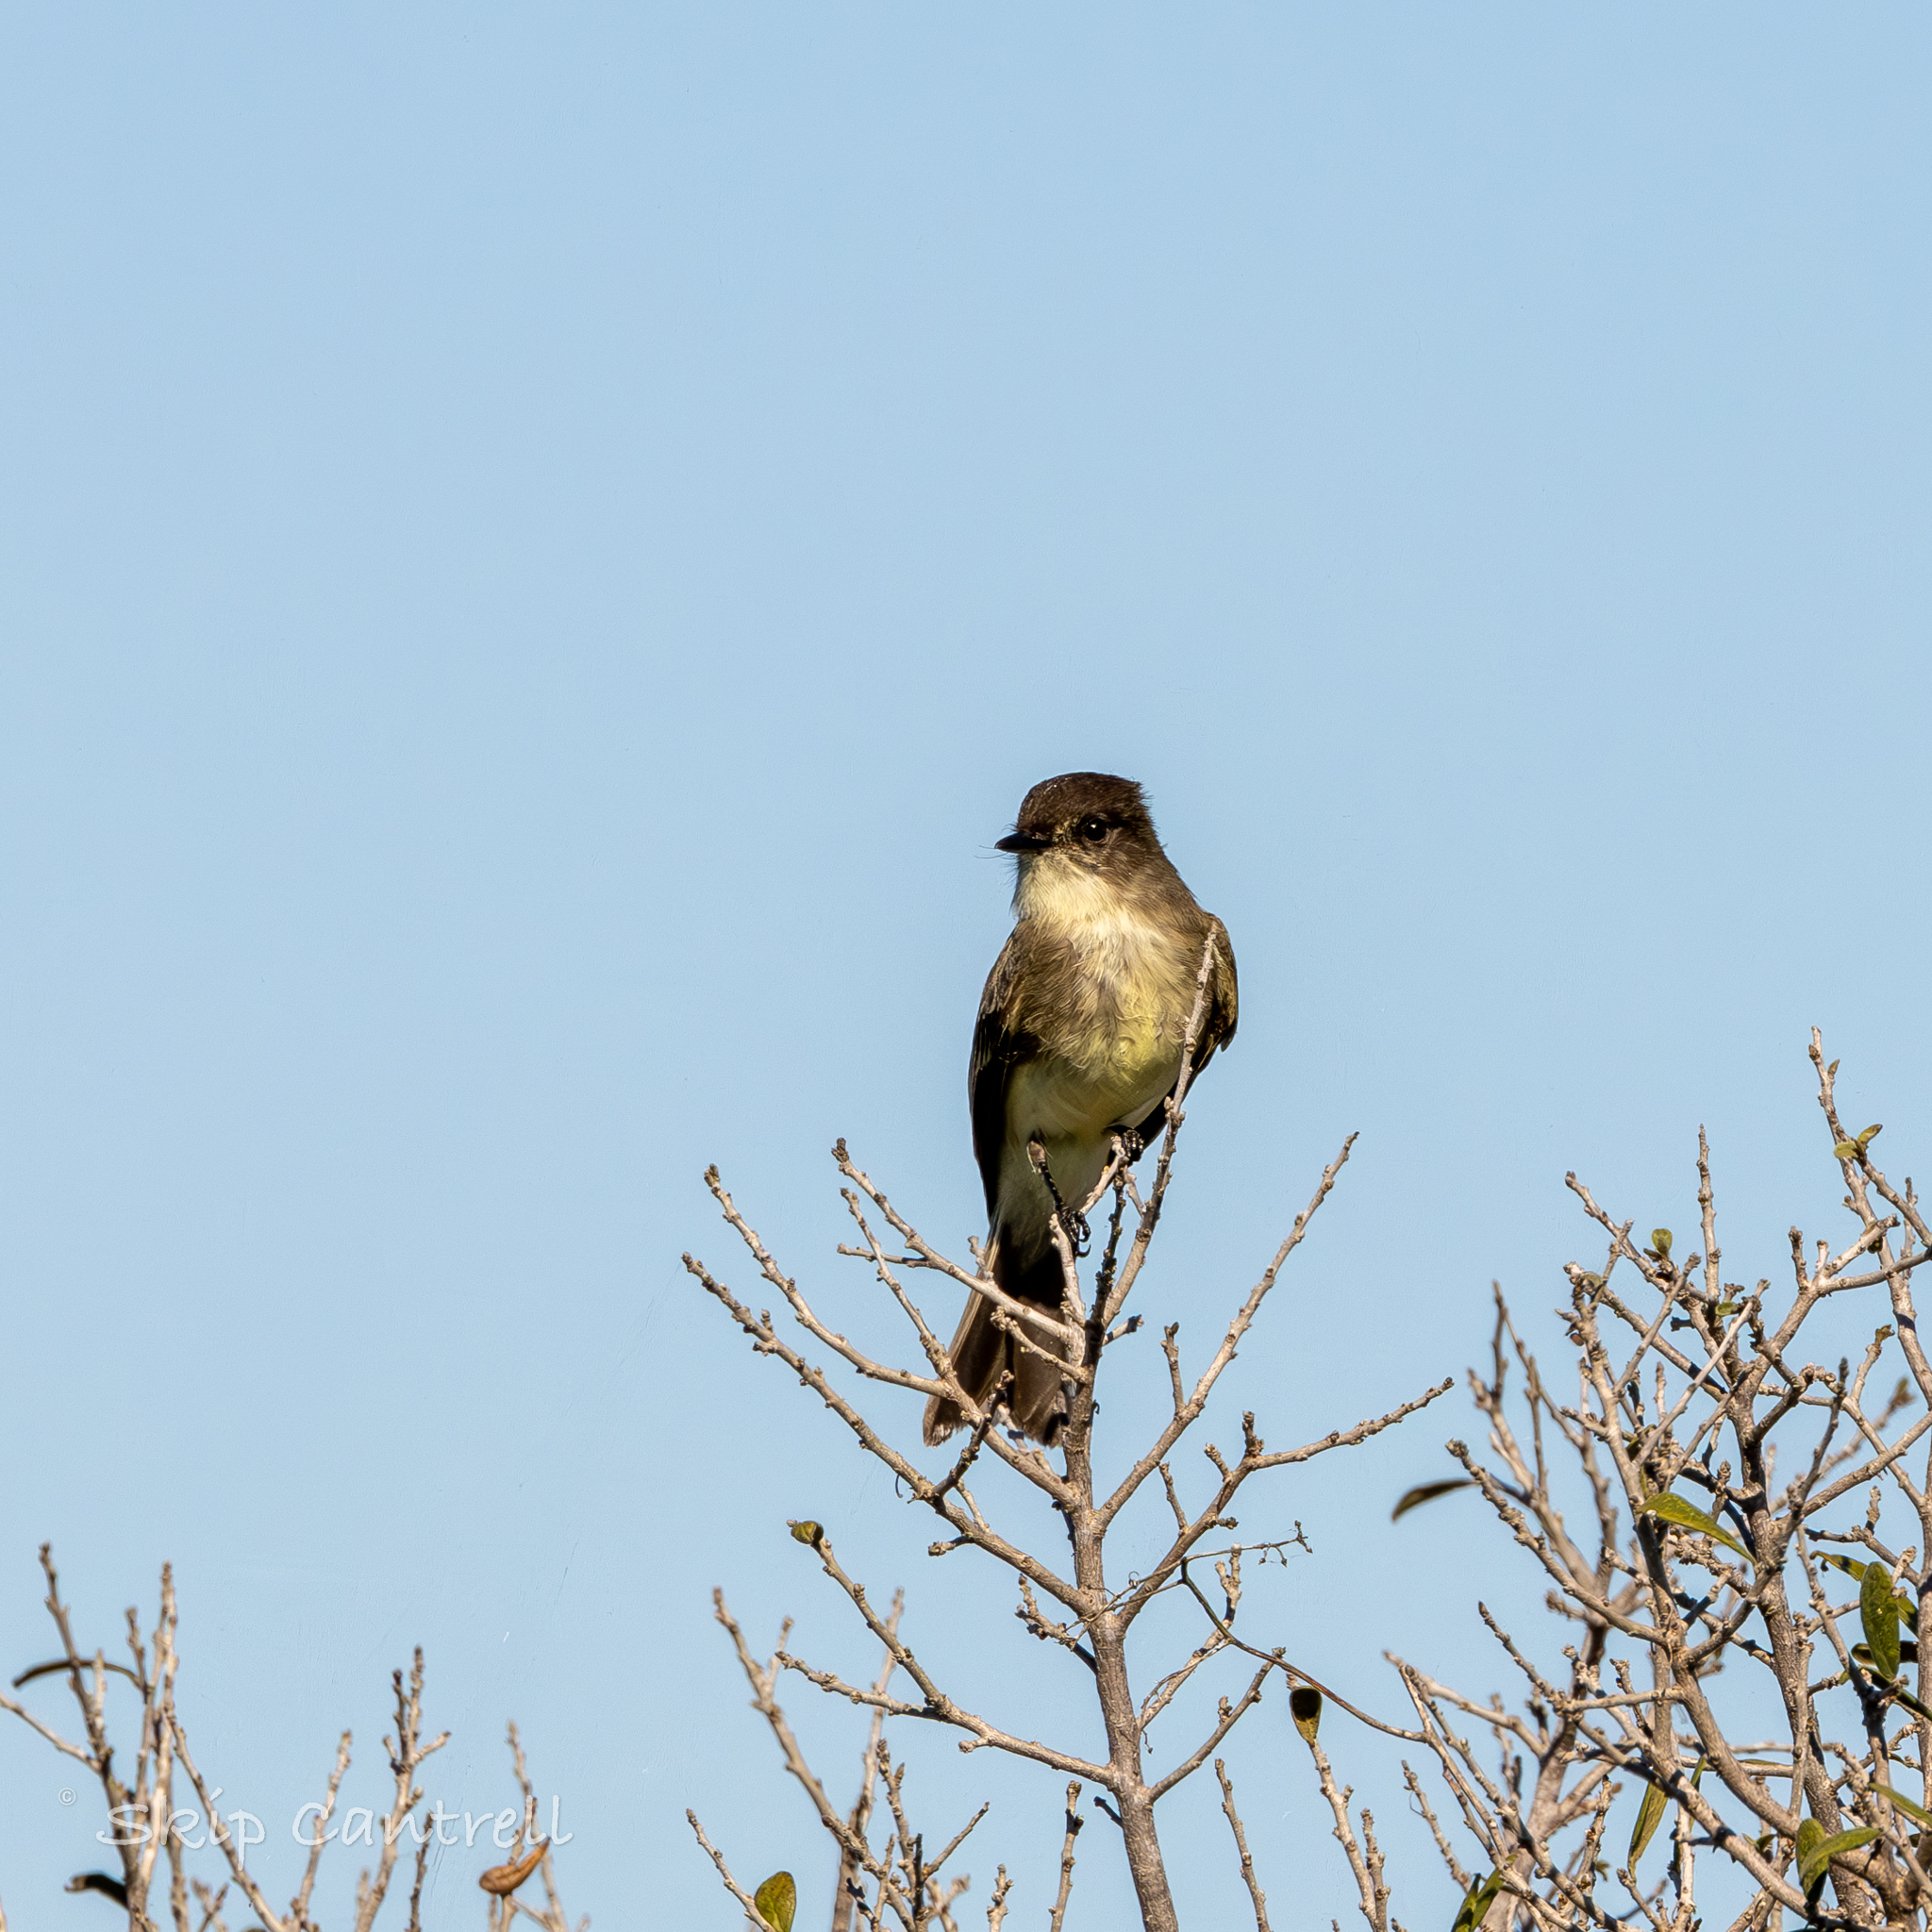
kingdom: Animalia
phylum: Chordata
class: Aves
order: Passeriformes
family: Tyrannidae
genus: Sayornis
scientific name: Sayornis phoebe
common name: Eastern phoebe
